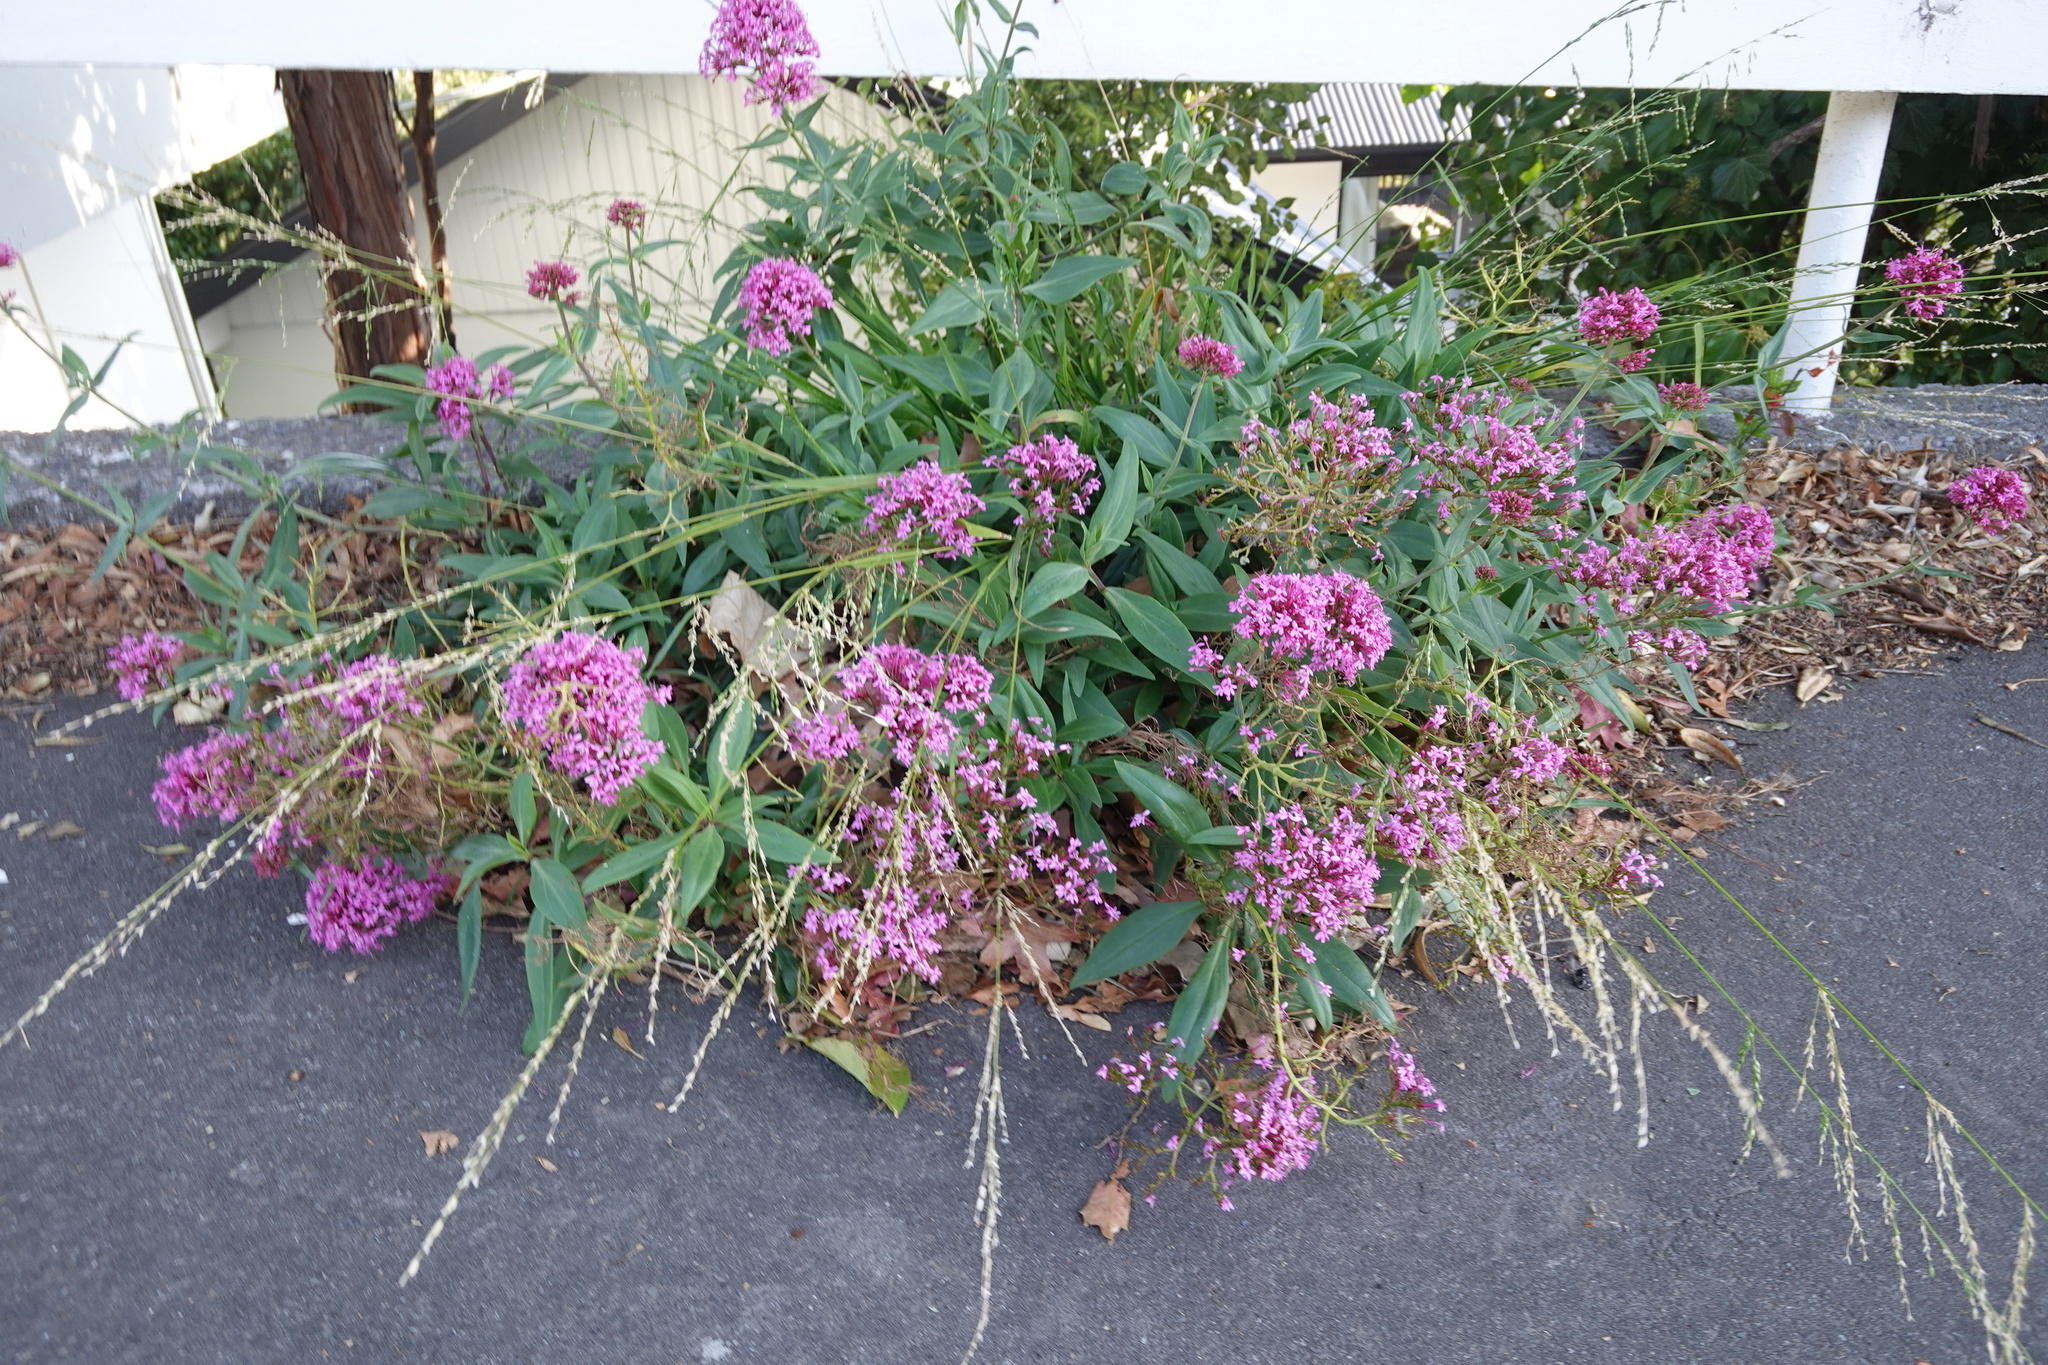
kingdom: Plantae
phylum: Tracheophyta
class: Magnoliopsida
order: Dipsacales
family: Caprifoliaceae
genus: Centranthus
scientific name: Centranthus ruber
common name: Red valerian
